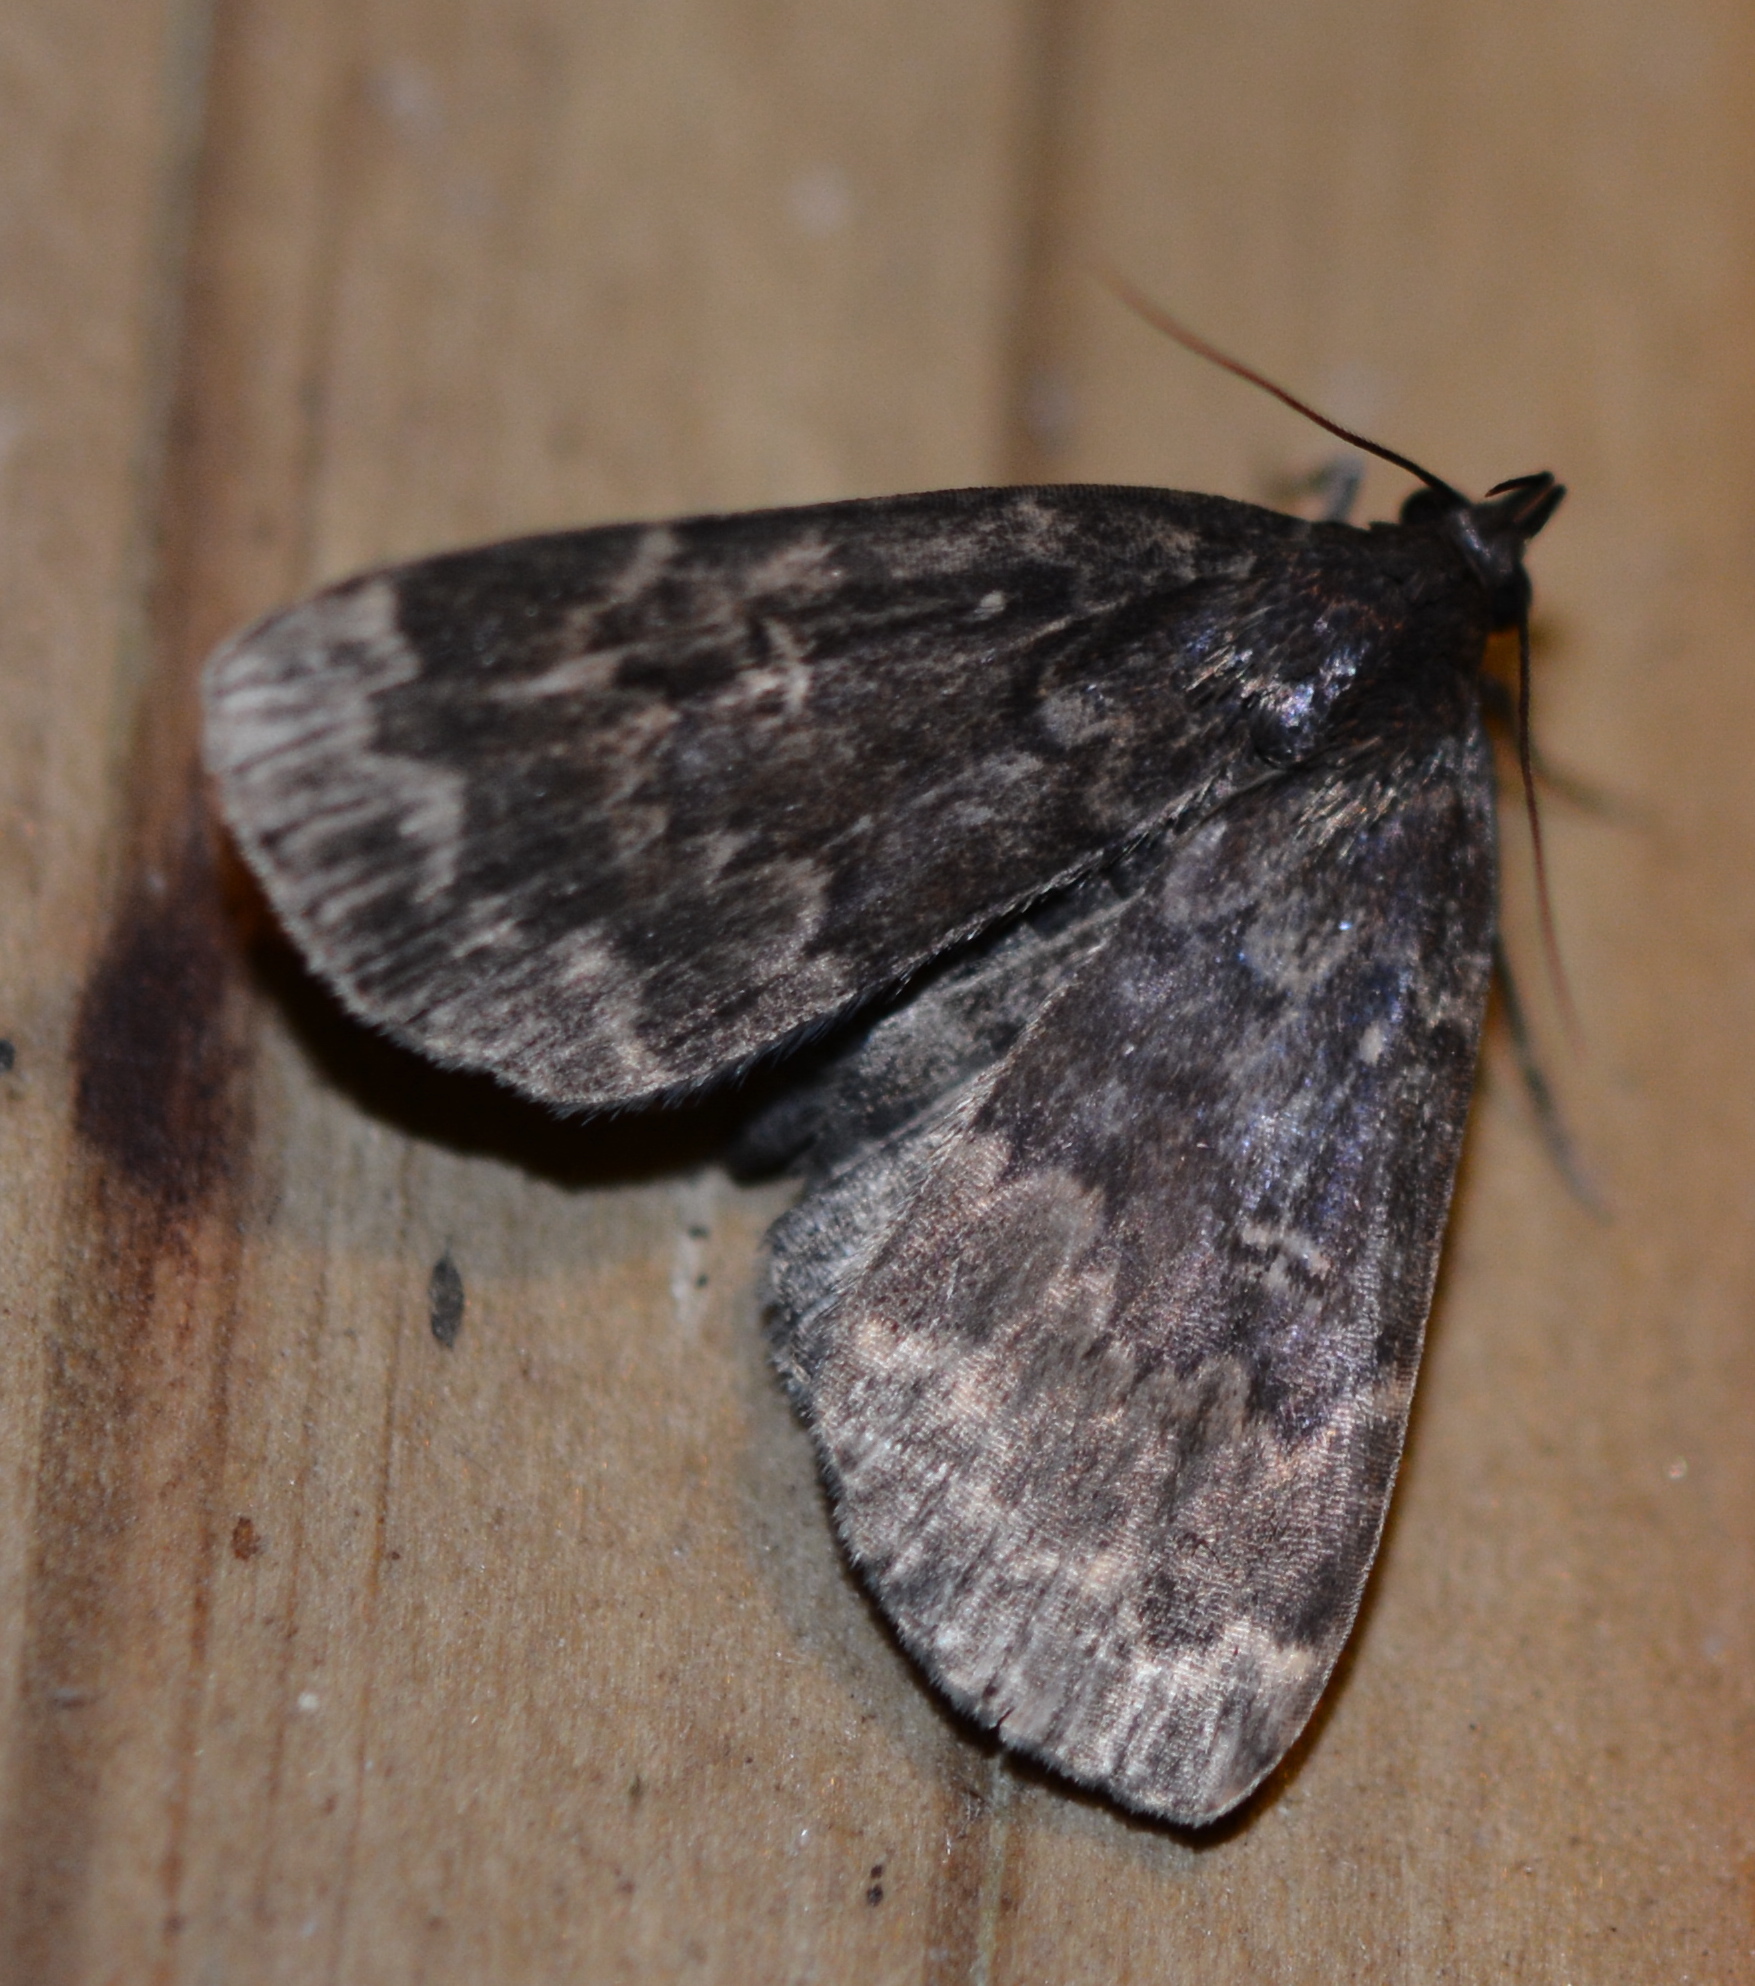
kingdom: Animalia
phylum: Arthropoda
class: Insecta
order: Lepidoptera
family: Erebidae
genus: Idia
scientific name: Idia lubricalis
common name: Twin-striped tabby
